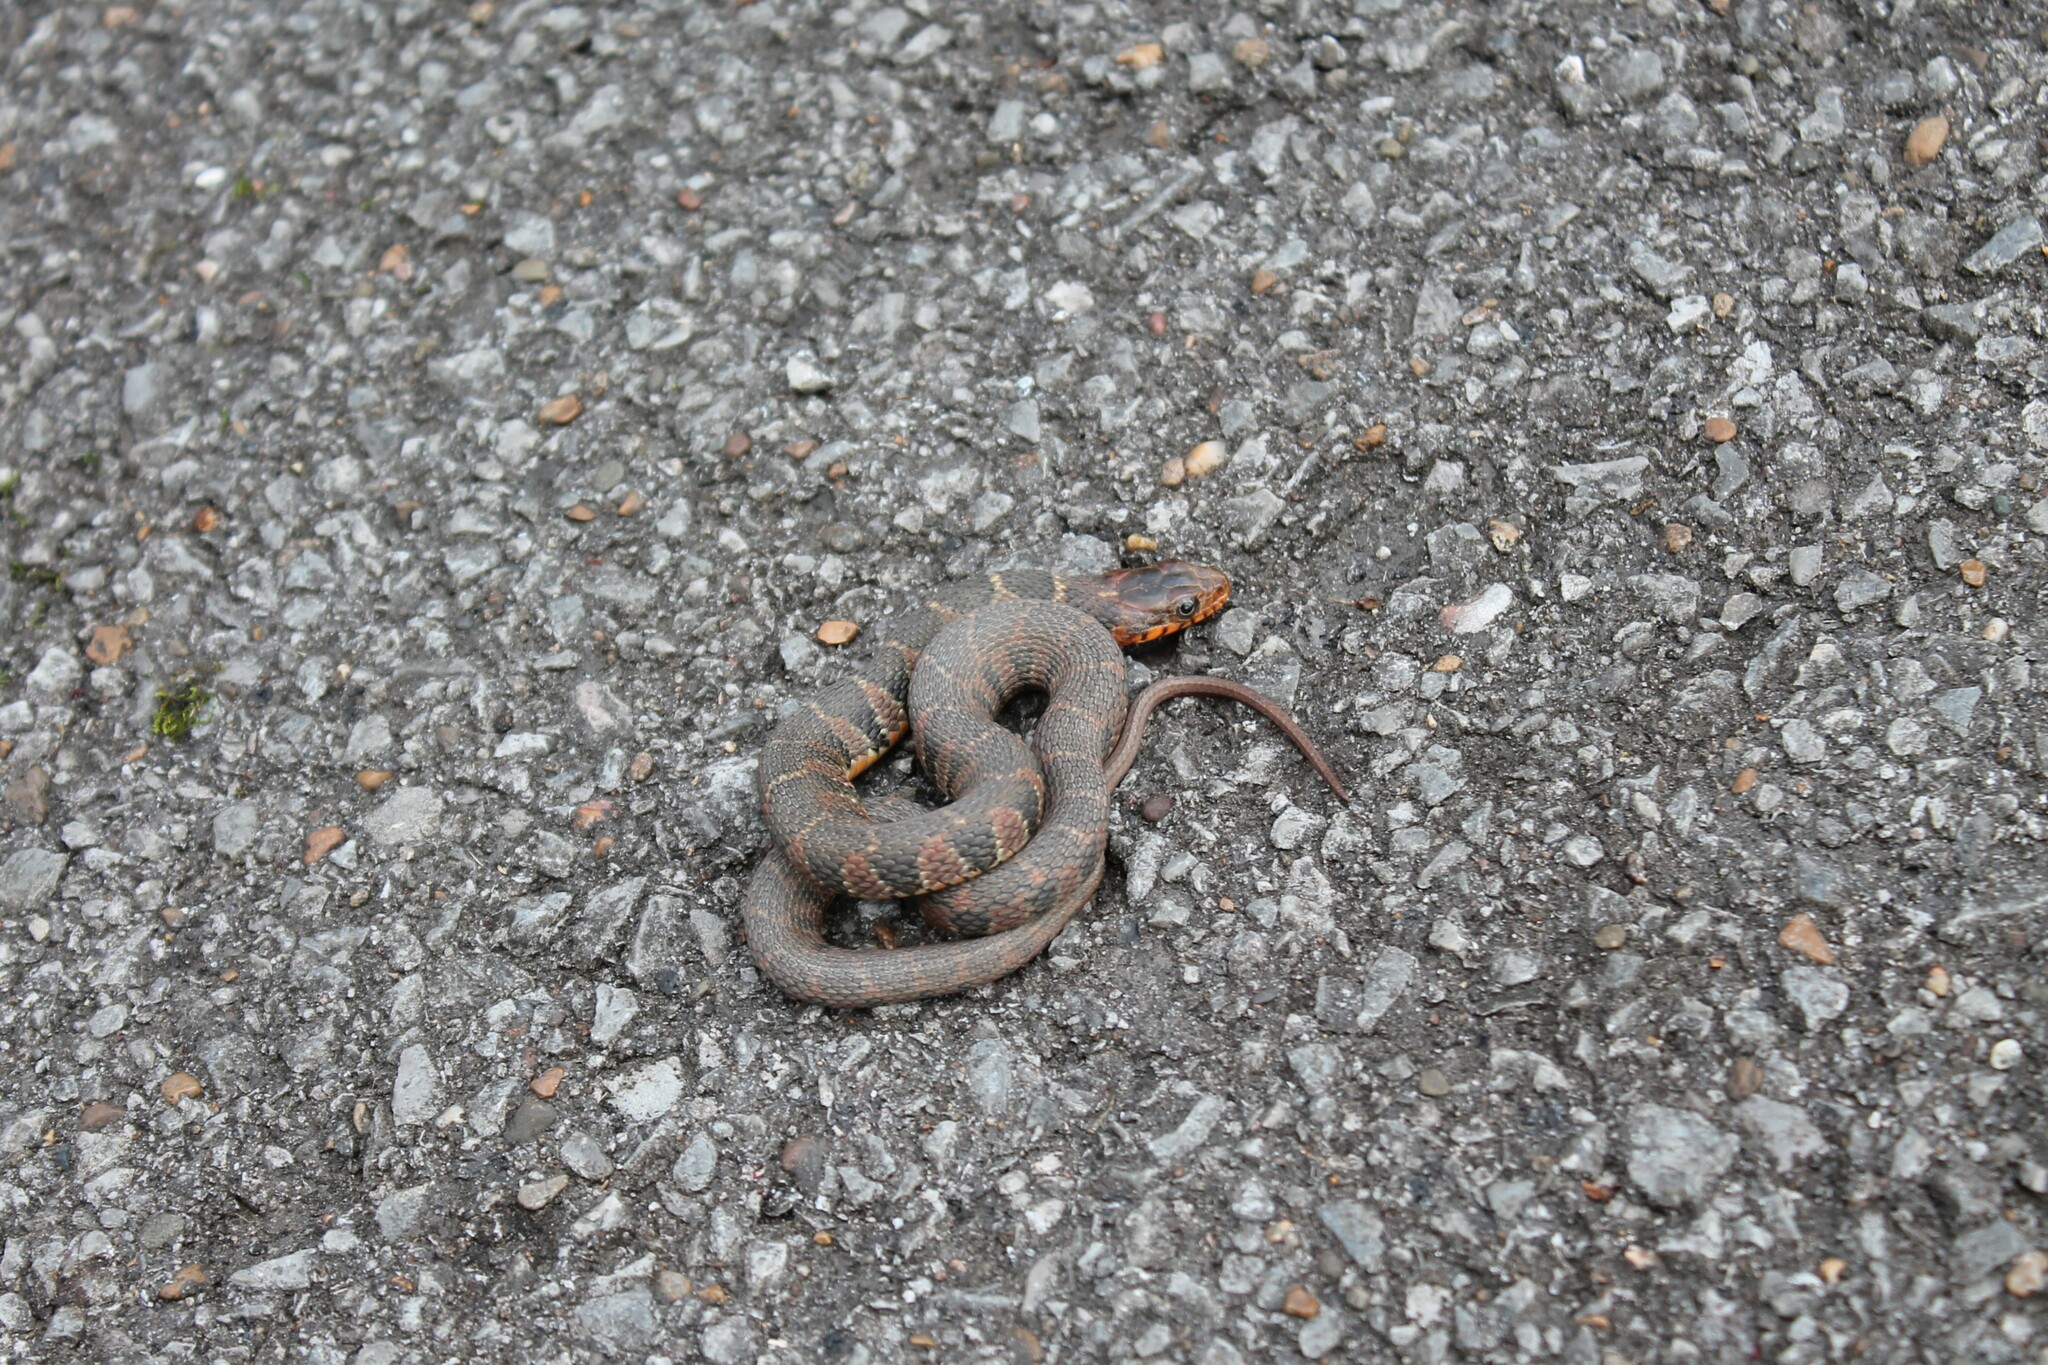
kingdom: Animalia
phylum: Chordata
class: Squamata
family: Colubridae
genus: Nerodia
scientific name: Nerodia erythrogaster
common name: Plainbelly water snake
